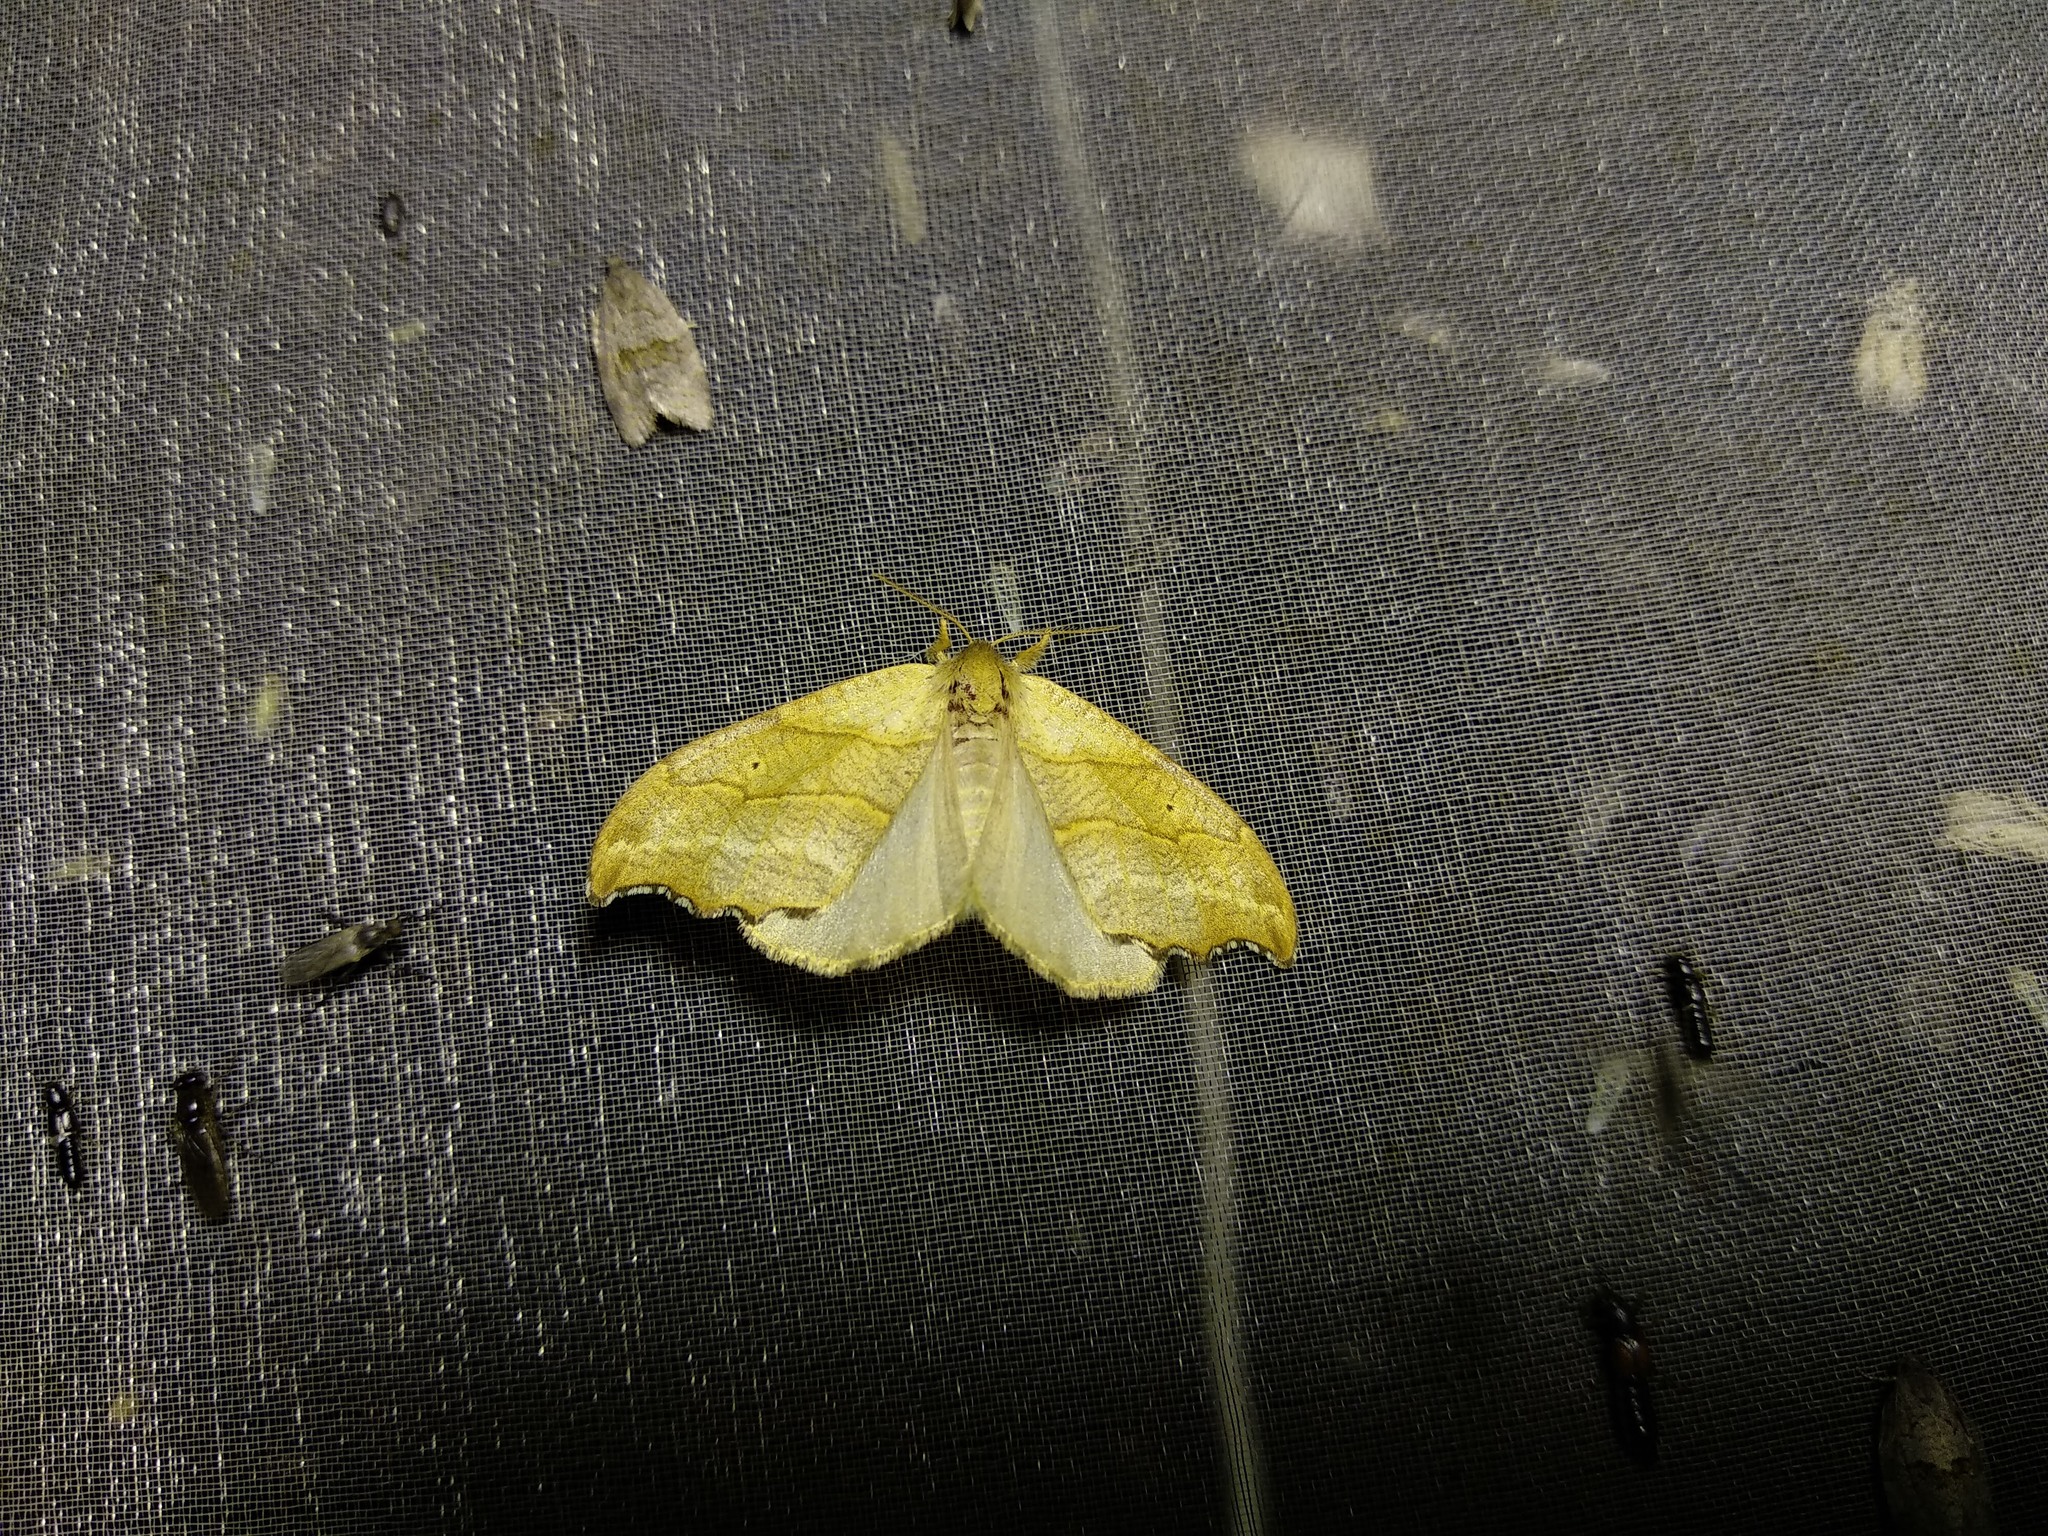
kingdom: Animalia
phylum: Arthropoda
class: Insecta
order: Lepidoptera
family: Drepanidae
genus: Falcaria
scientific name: Falcaria lacertinaria
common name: Scalloped hook-tip
